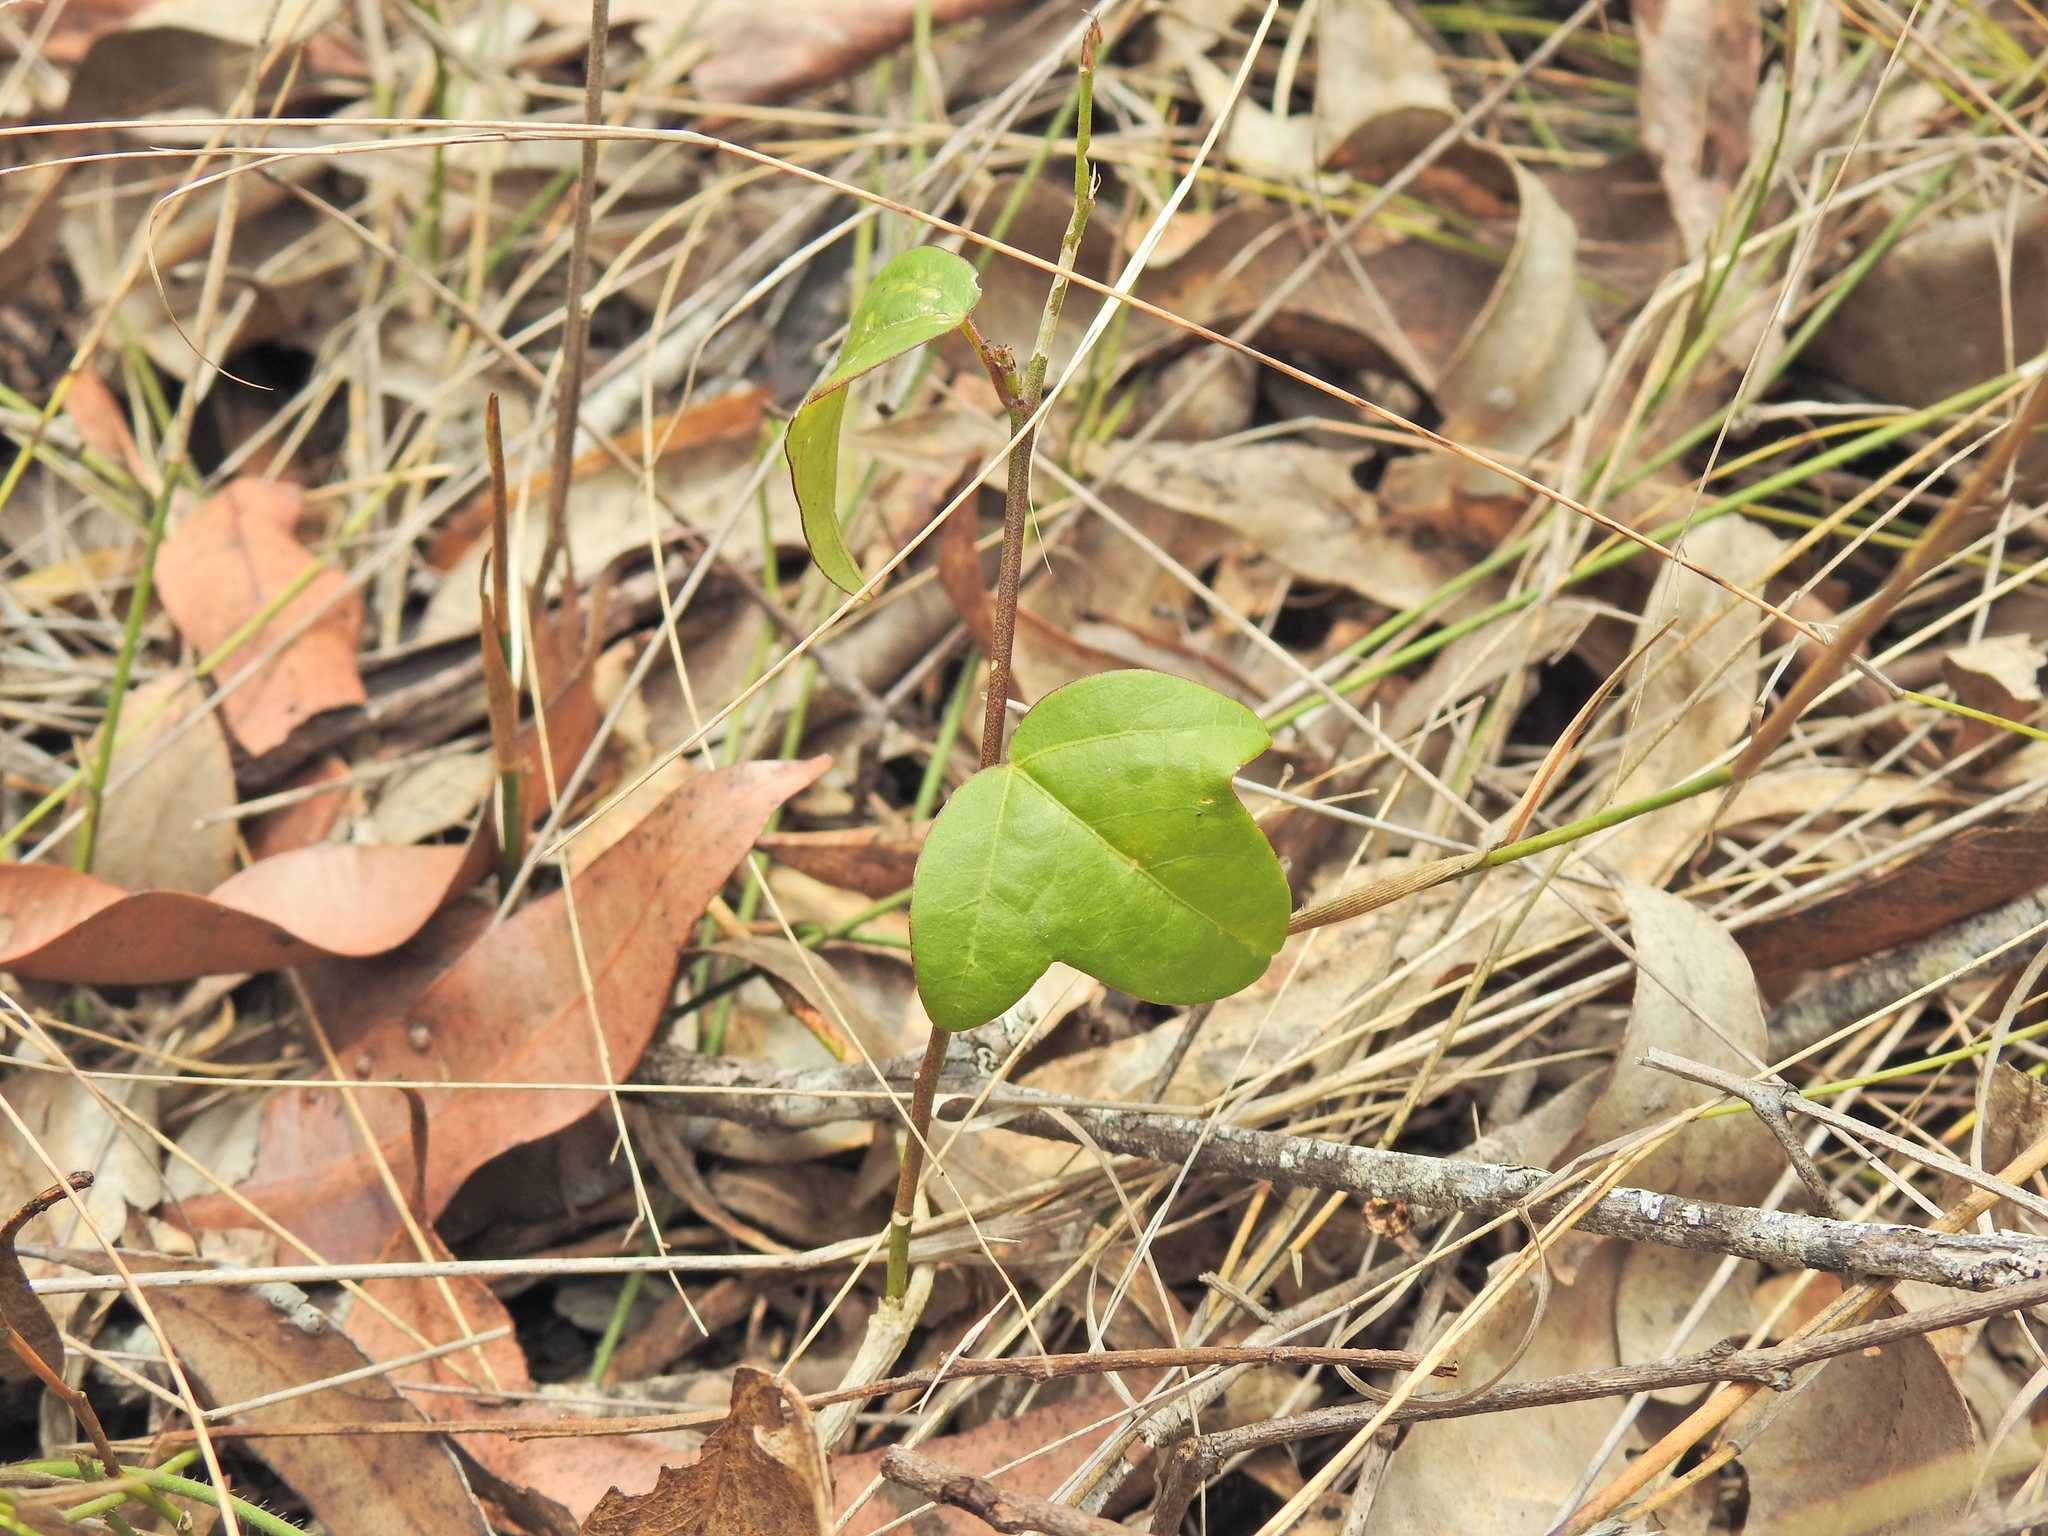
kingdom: Plantae
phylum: Tracheophyta
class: Magnoliopsida
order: Malpighiales
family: Passifloraceae
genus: Passiflora
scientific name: Passiflora pallida
